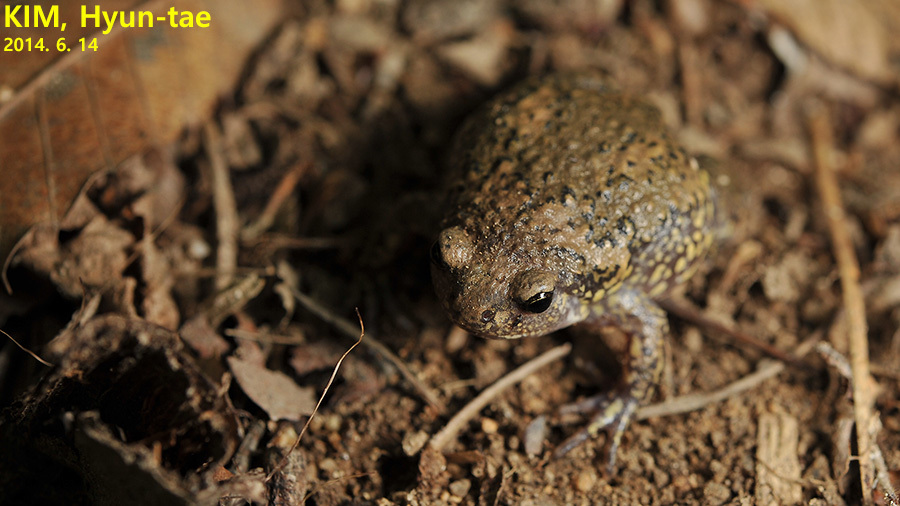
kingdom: Animalia
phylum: Chordata
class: Amphibia
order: Anura
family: Microhylidae
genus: Kaloula
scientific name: Kaloula borealis
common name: Boreal digging frog
